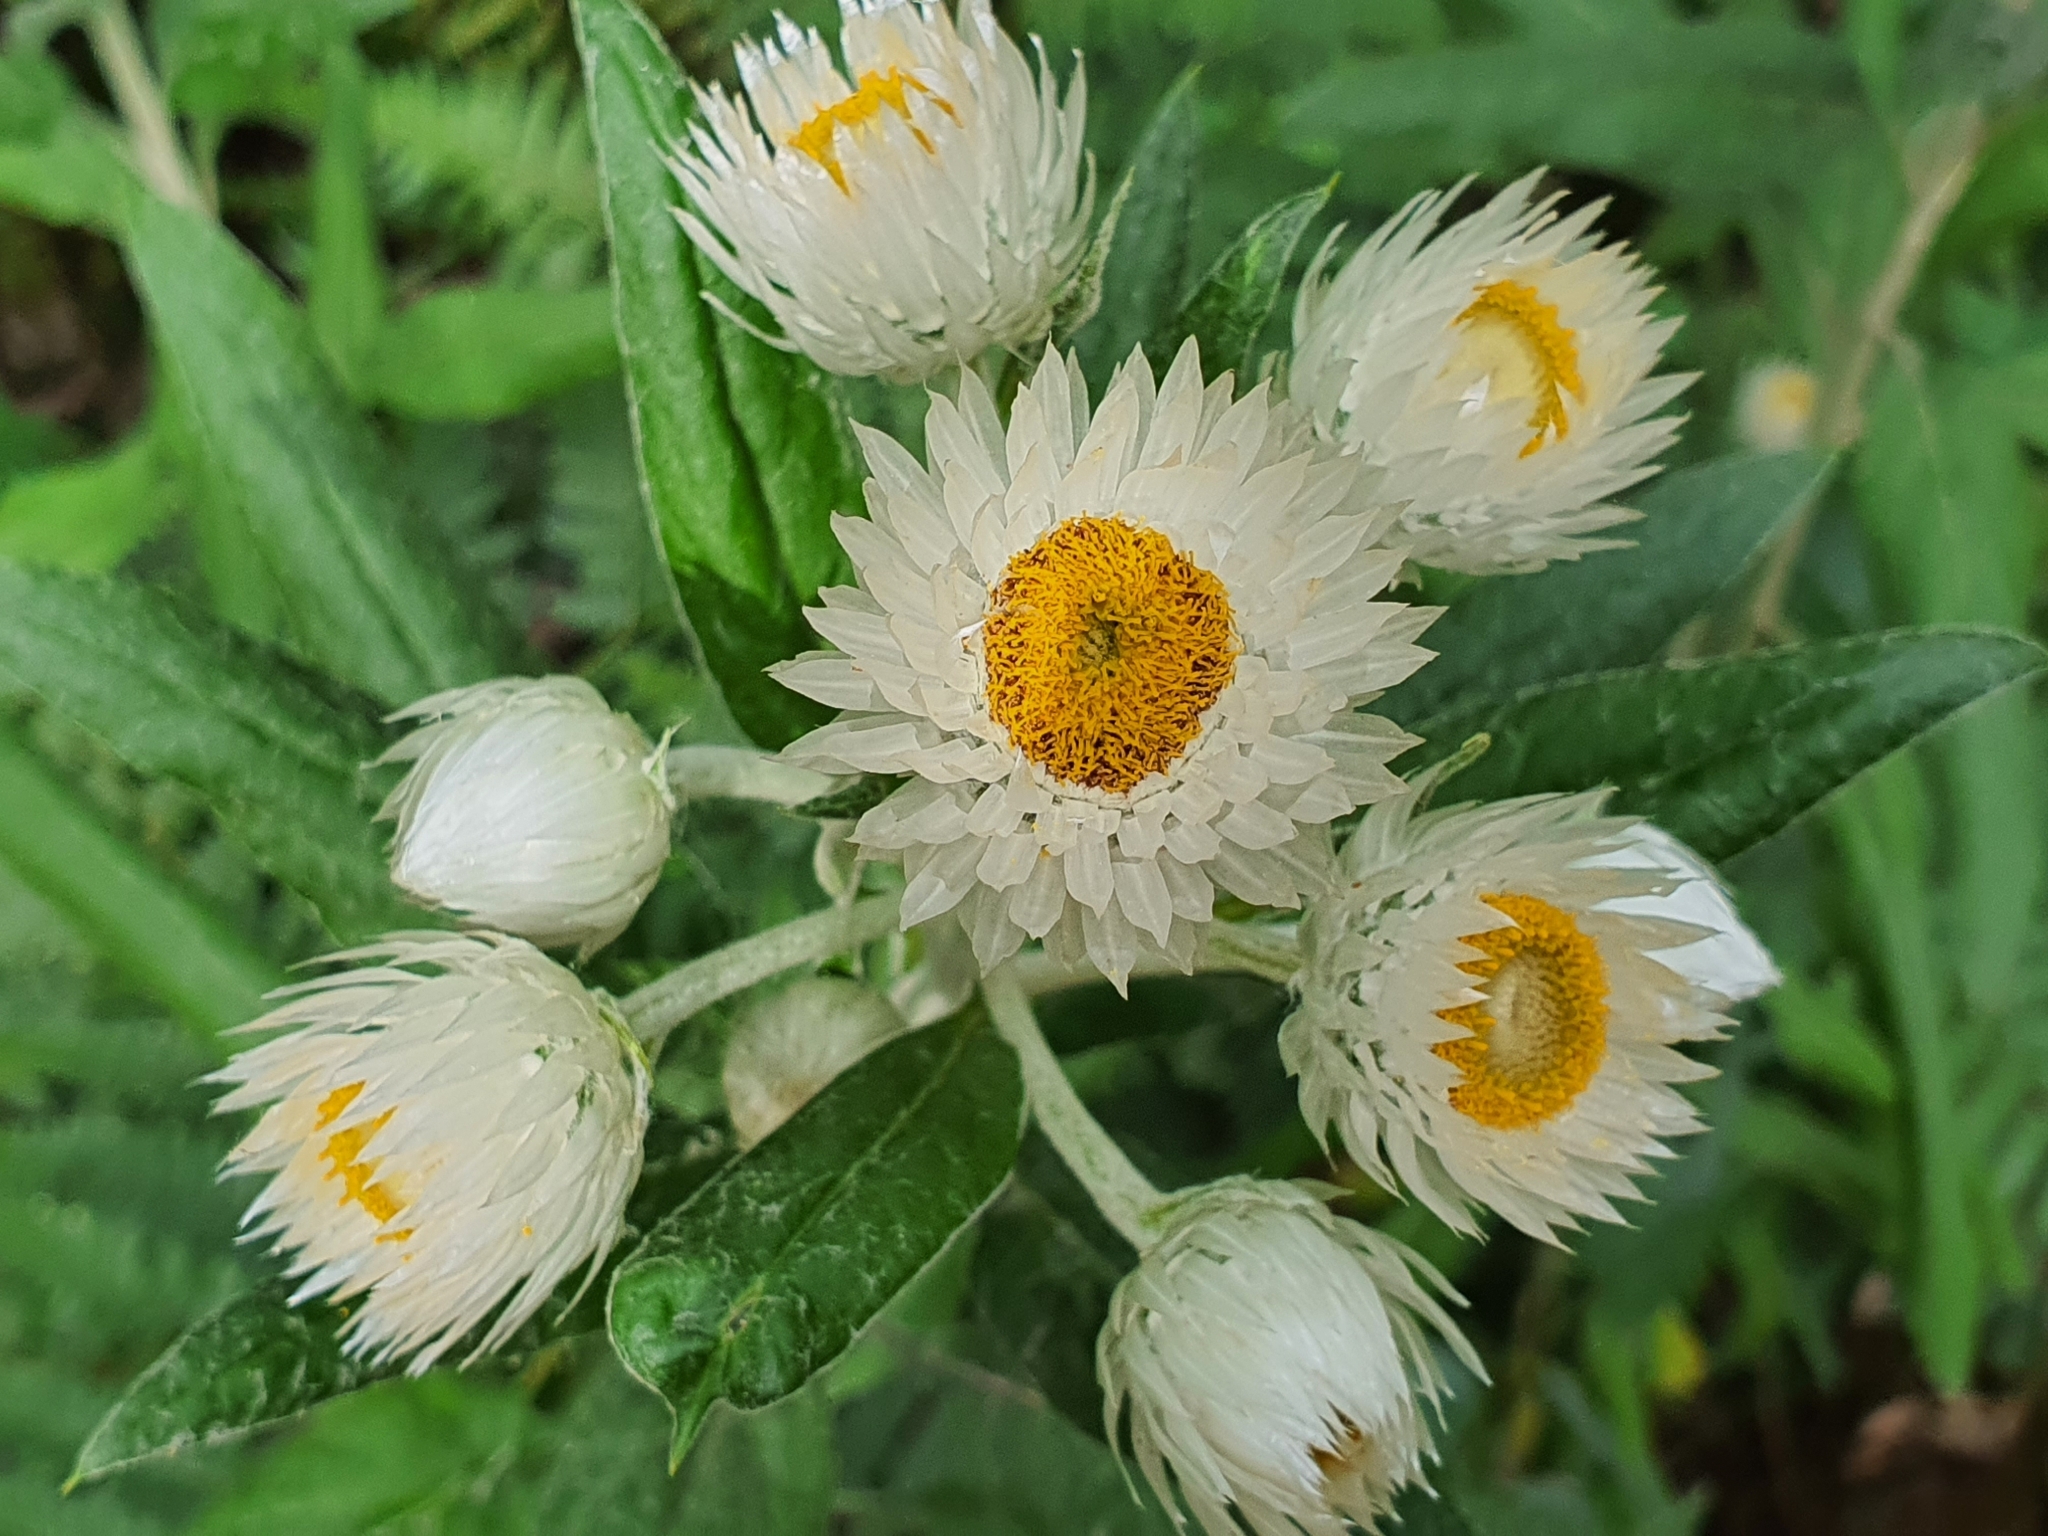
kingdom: Plantae
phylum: Tracheophyta
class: Magnoliopsida
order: Asterales
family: Asteraceae
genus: Leucozoma
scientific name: Leucozoma elatum
